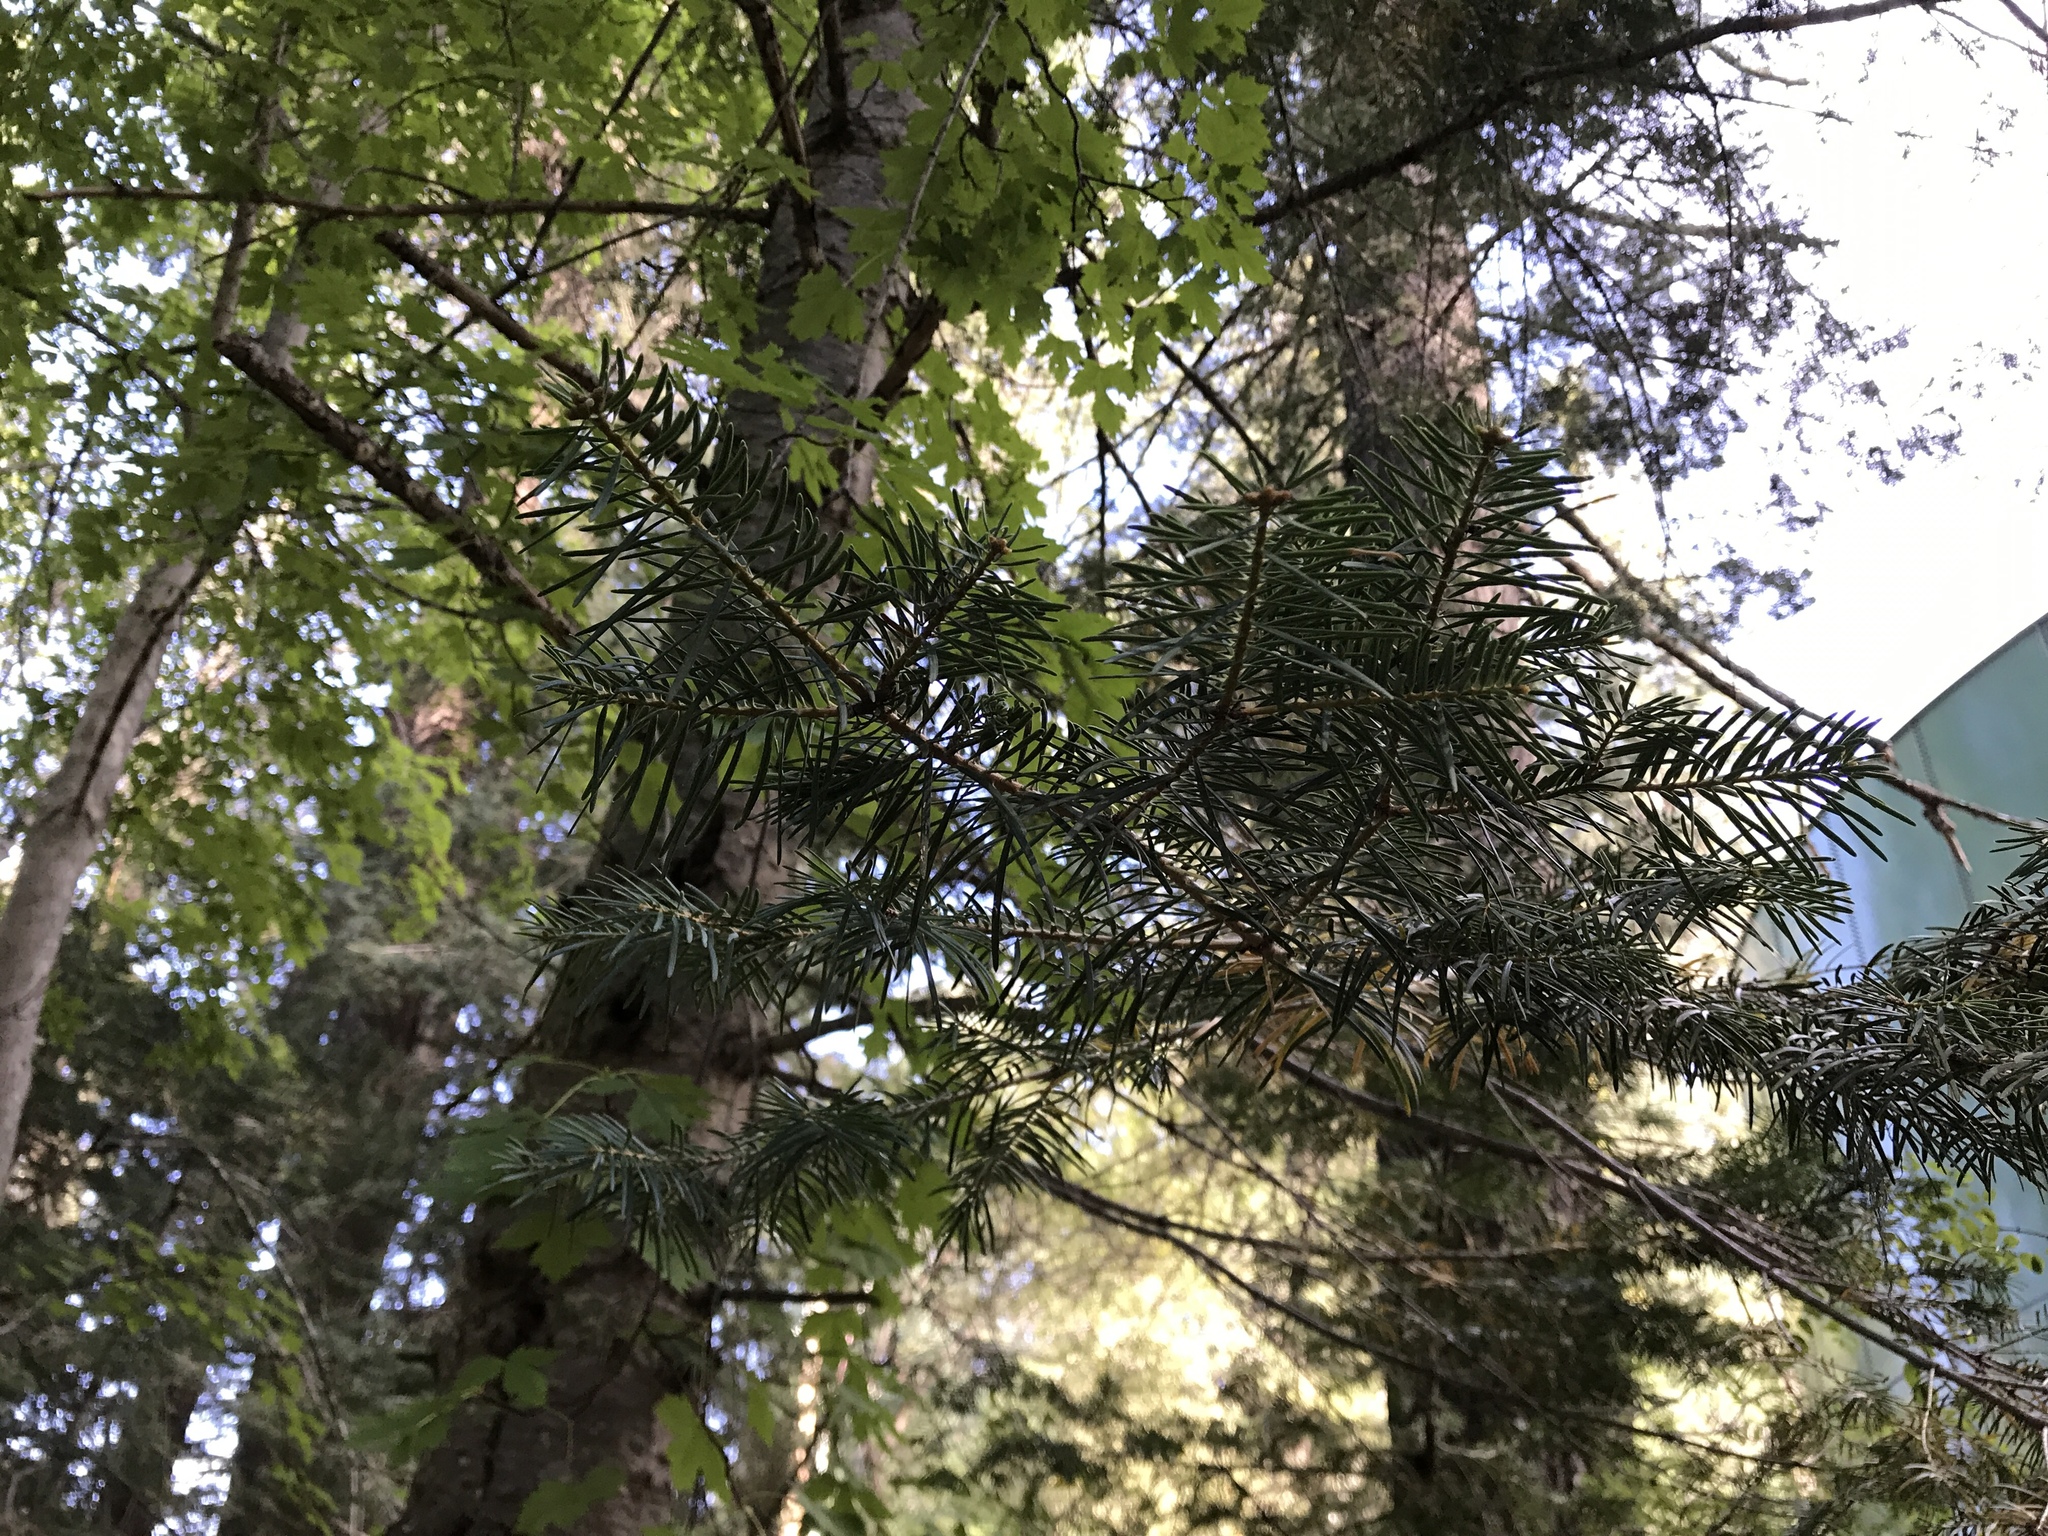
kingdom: Plantae
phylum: Tracheophyta
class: Pinopsida
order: Pinales
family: Pinaceae
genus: Abies
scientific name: Abies concolor
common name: Colorado fir
